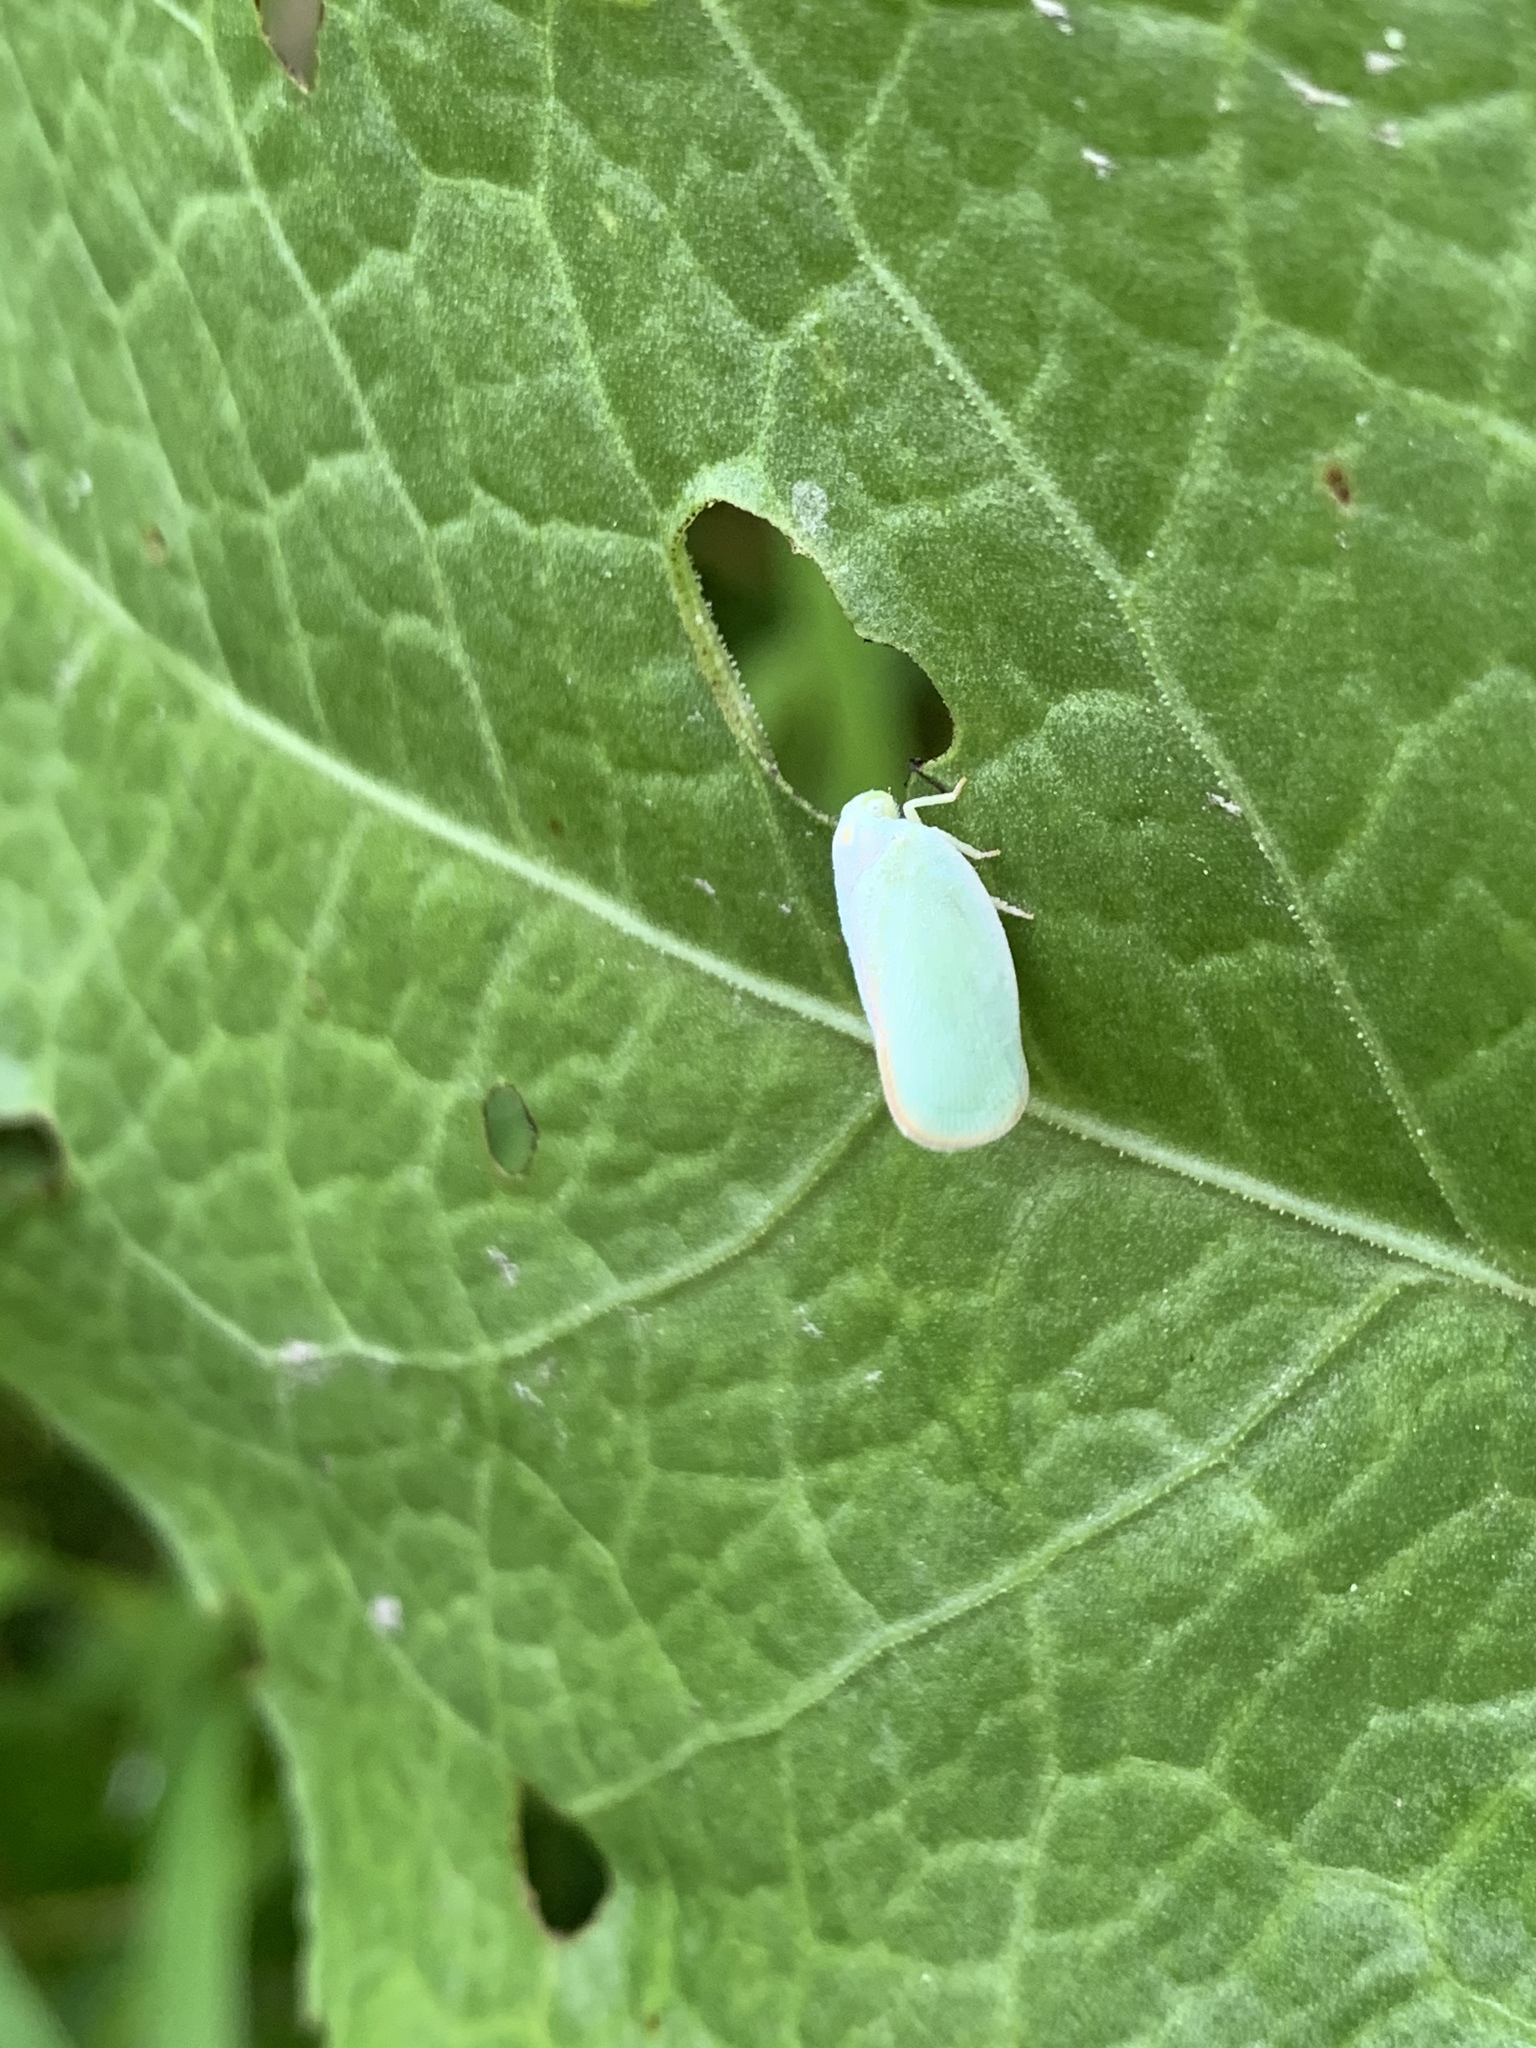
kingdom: Animalia
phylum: Arthropoda
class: Insecta
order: Hemiptera
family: Flatidae
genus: Ormenoides
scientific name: Ormenoides venusta
